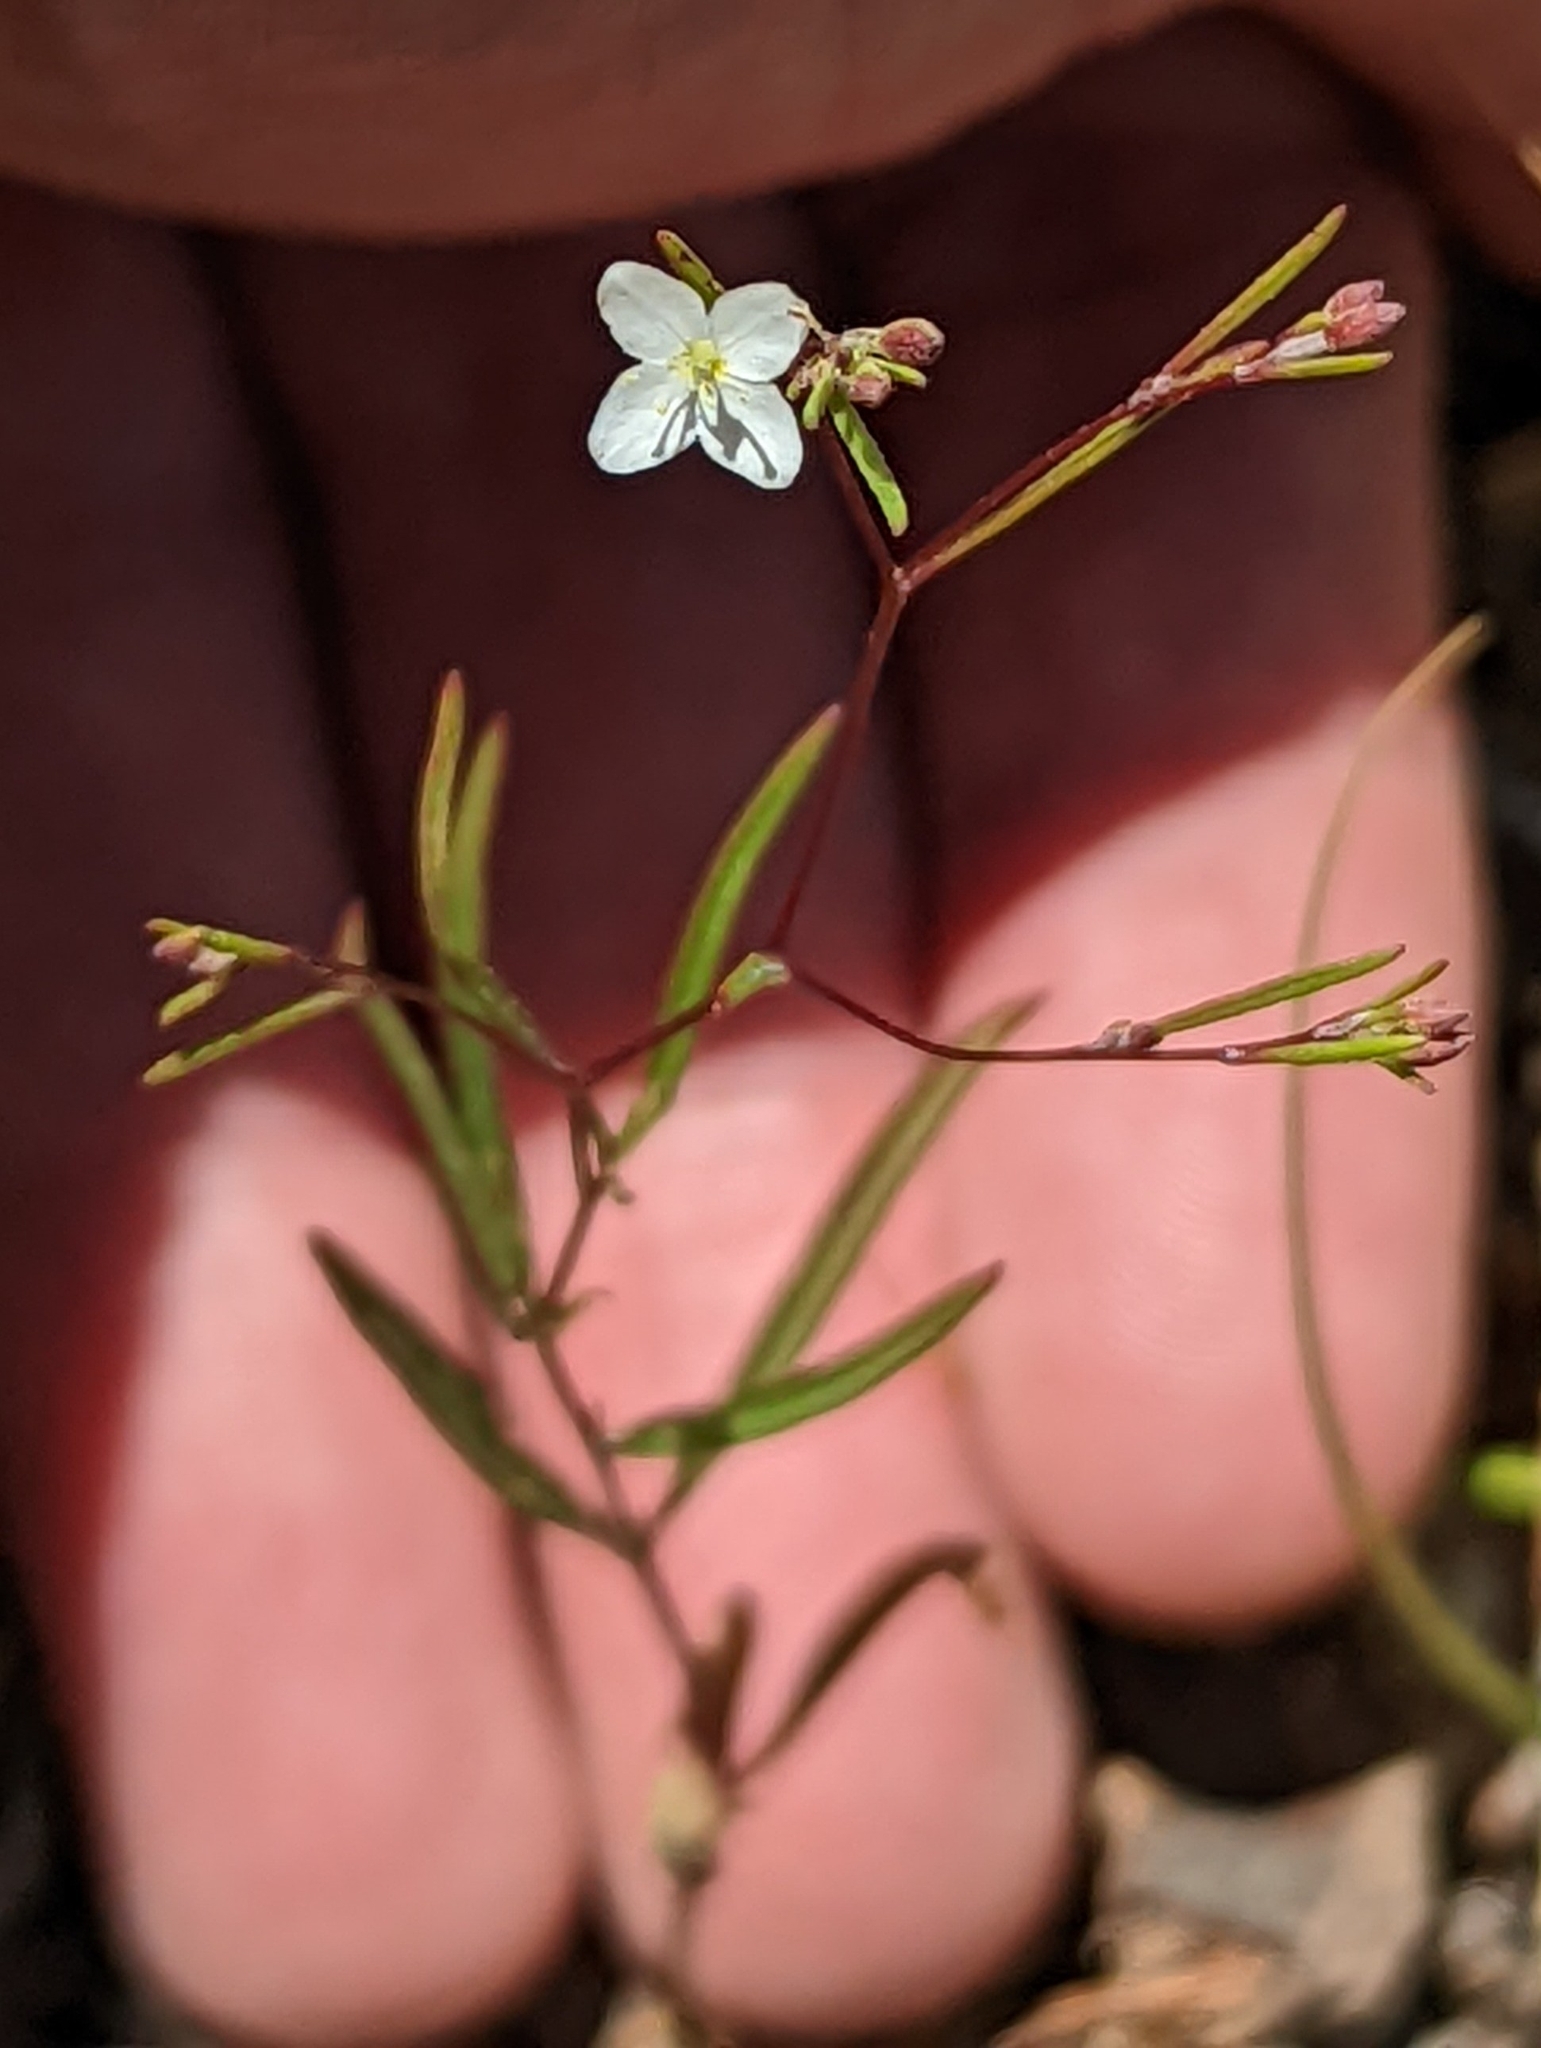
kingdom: Plantae
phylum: Tracheophyta
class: Magnoliopsida
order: Myrtales
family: Onagraceae
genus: Gayophytum
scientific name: Gayophytum diffusum
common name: Big-flowered groundsmoke
